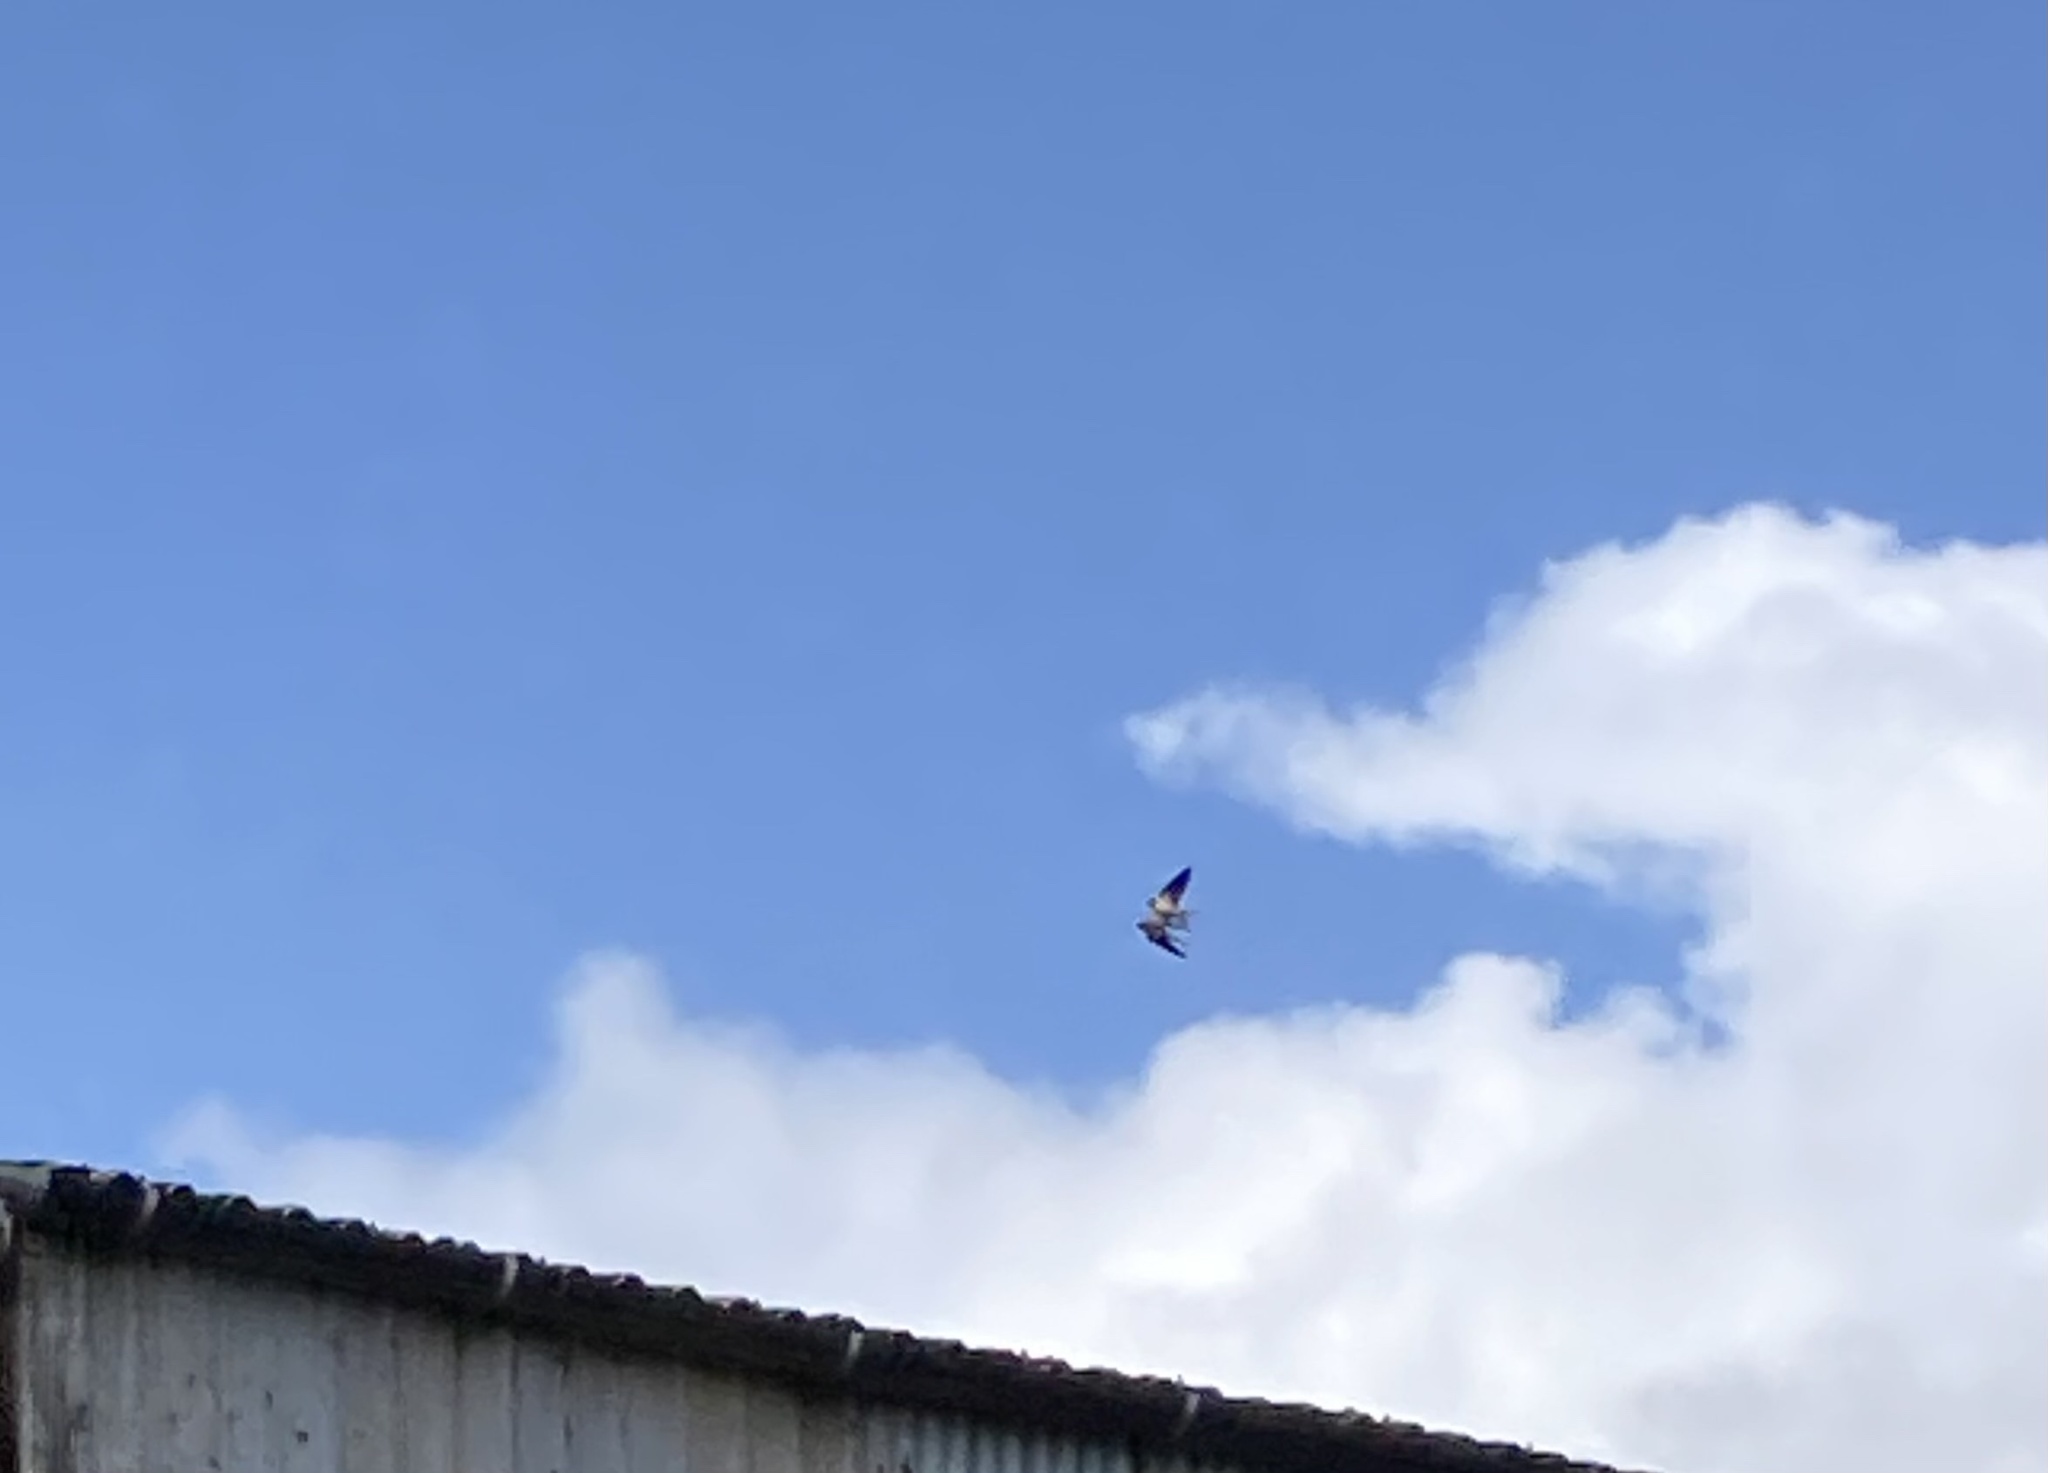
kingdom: Animalia
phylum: Chordata
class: Aves
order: Passeriformes
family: Hirundinidae
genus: Hirundo
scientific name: Hirundo rustica
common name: Barn swallow
